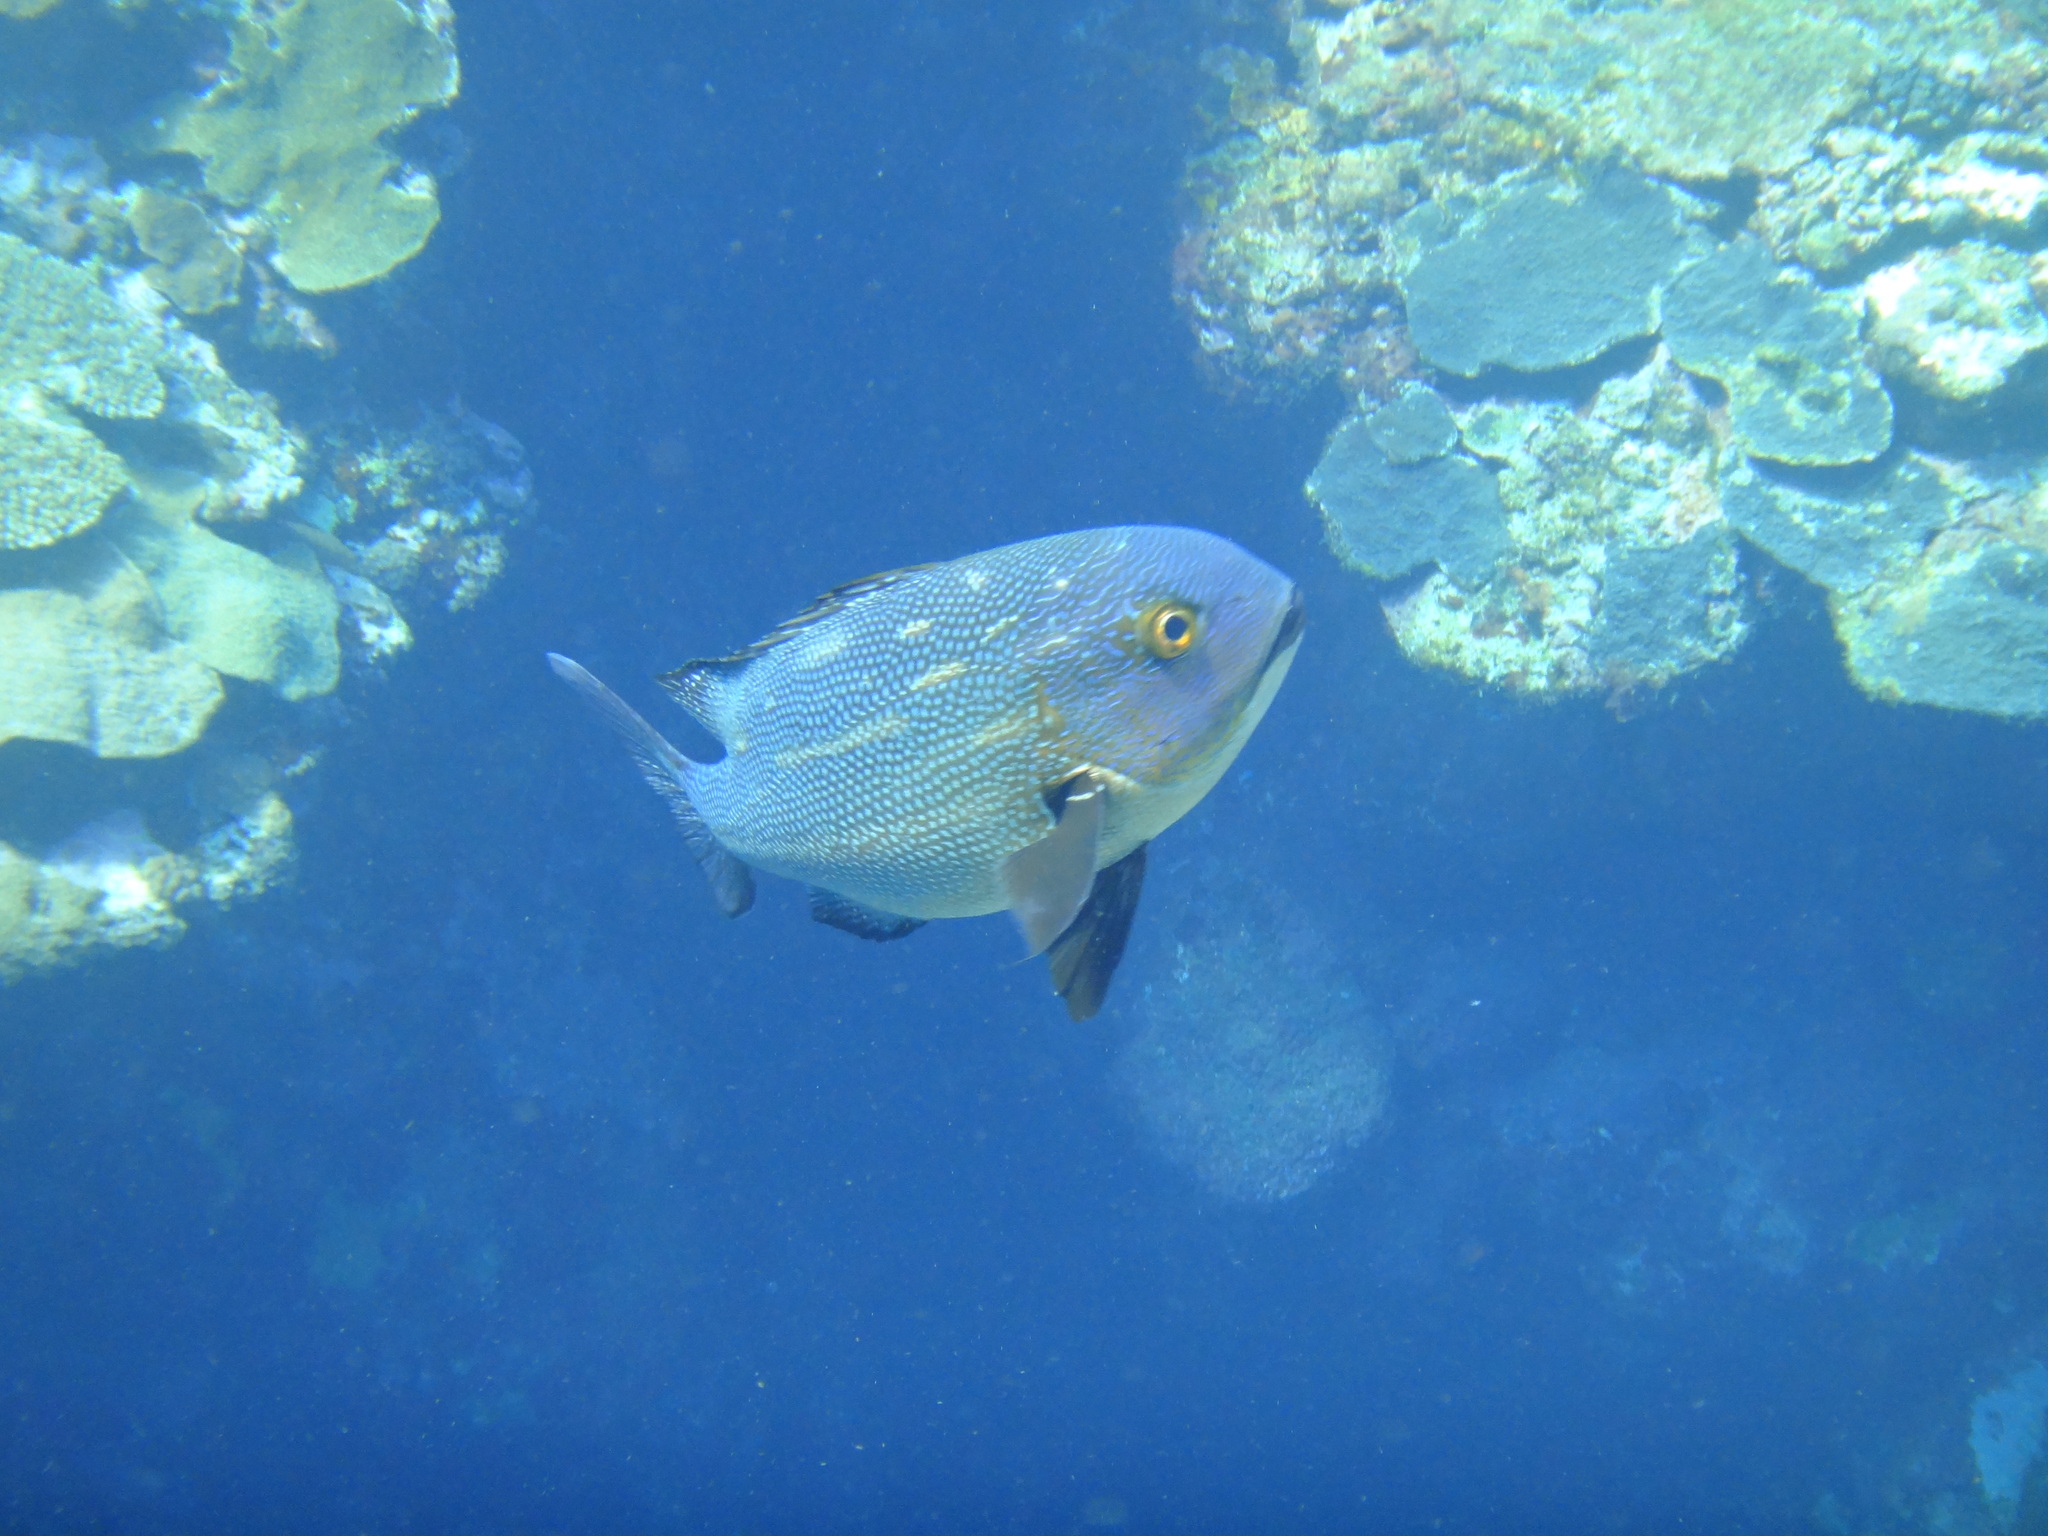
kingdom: Animalia
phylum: Chordata
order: Perciformes
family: Lutjanidae
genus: Macolor
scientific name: Macolor macularis
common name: Midnight snapper
